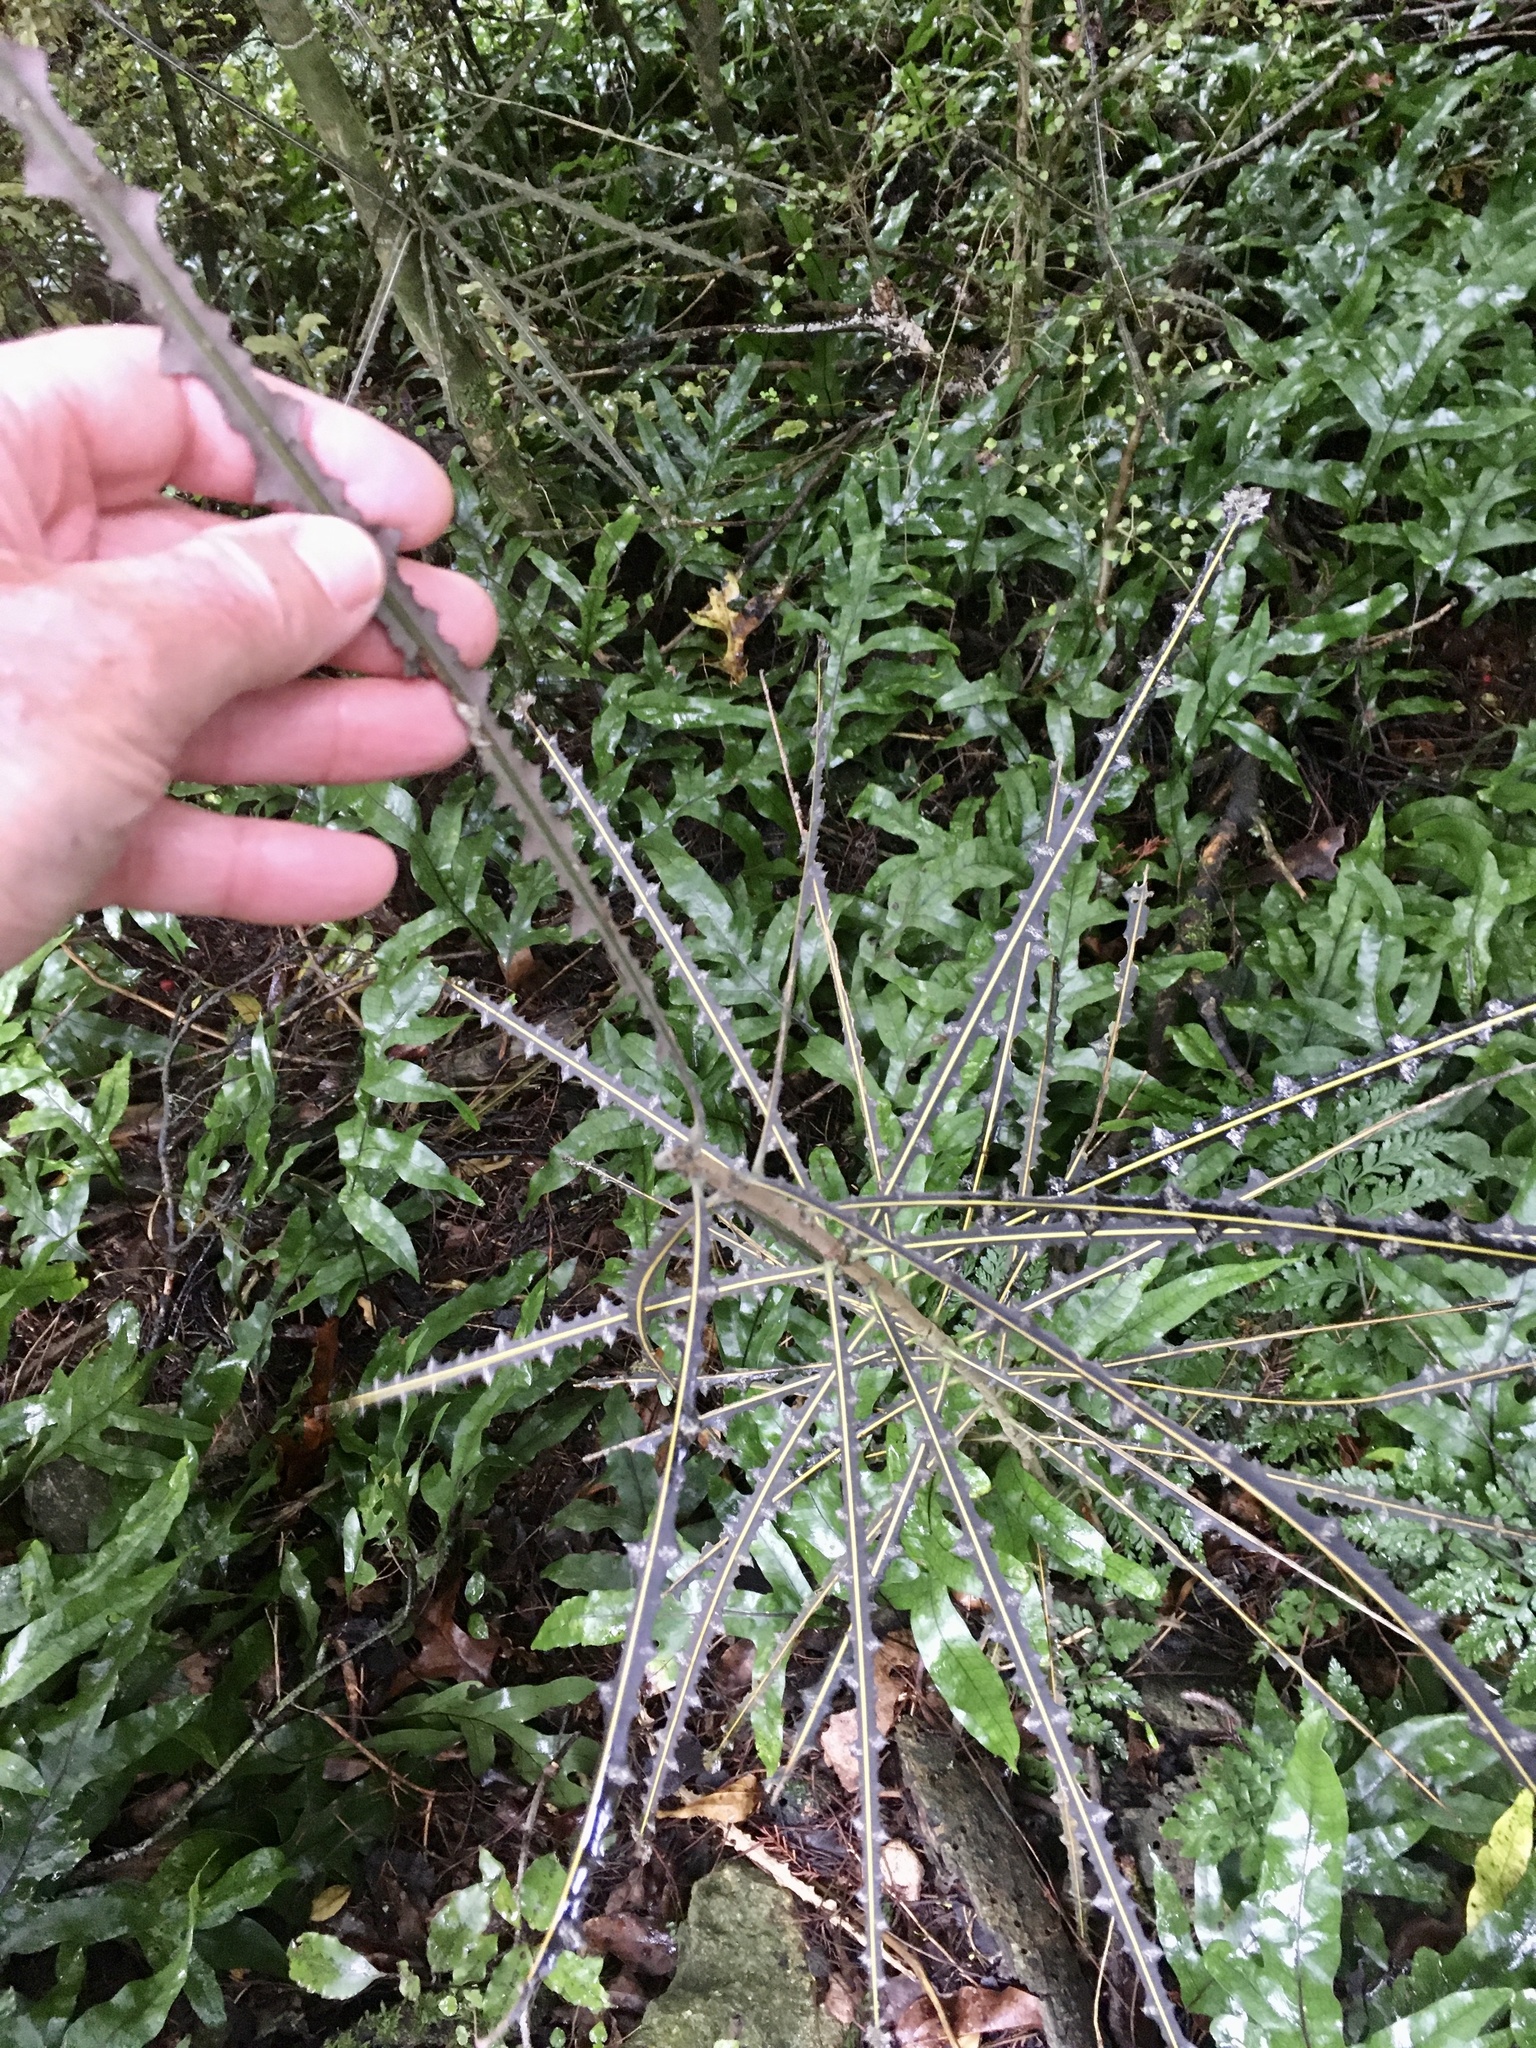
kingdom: Plantae
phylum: Tracheophyta
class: Magnoliopsida
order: Apiales
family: Araliaceae
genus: Pseudopanax
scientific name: Pseudopanax ferox
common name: Fierce lancewood
